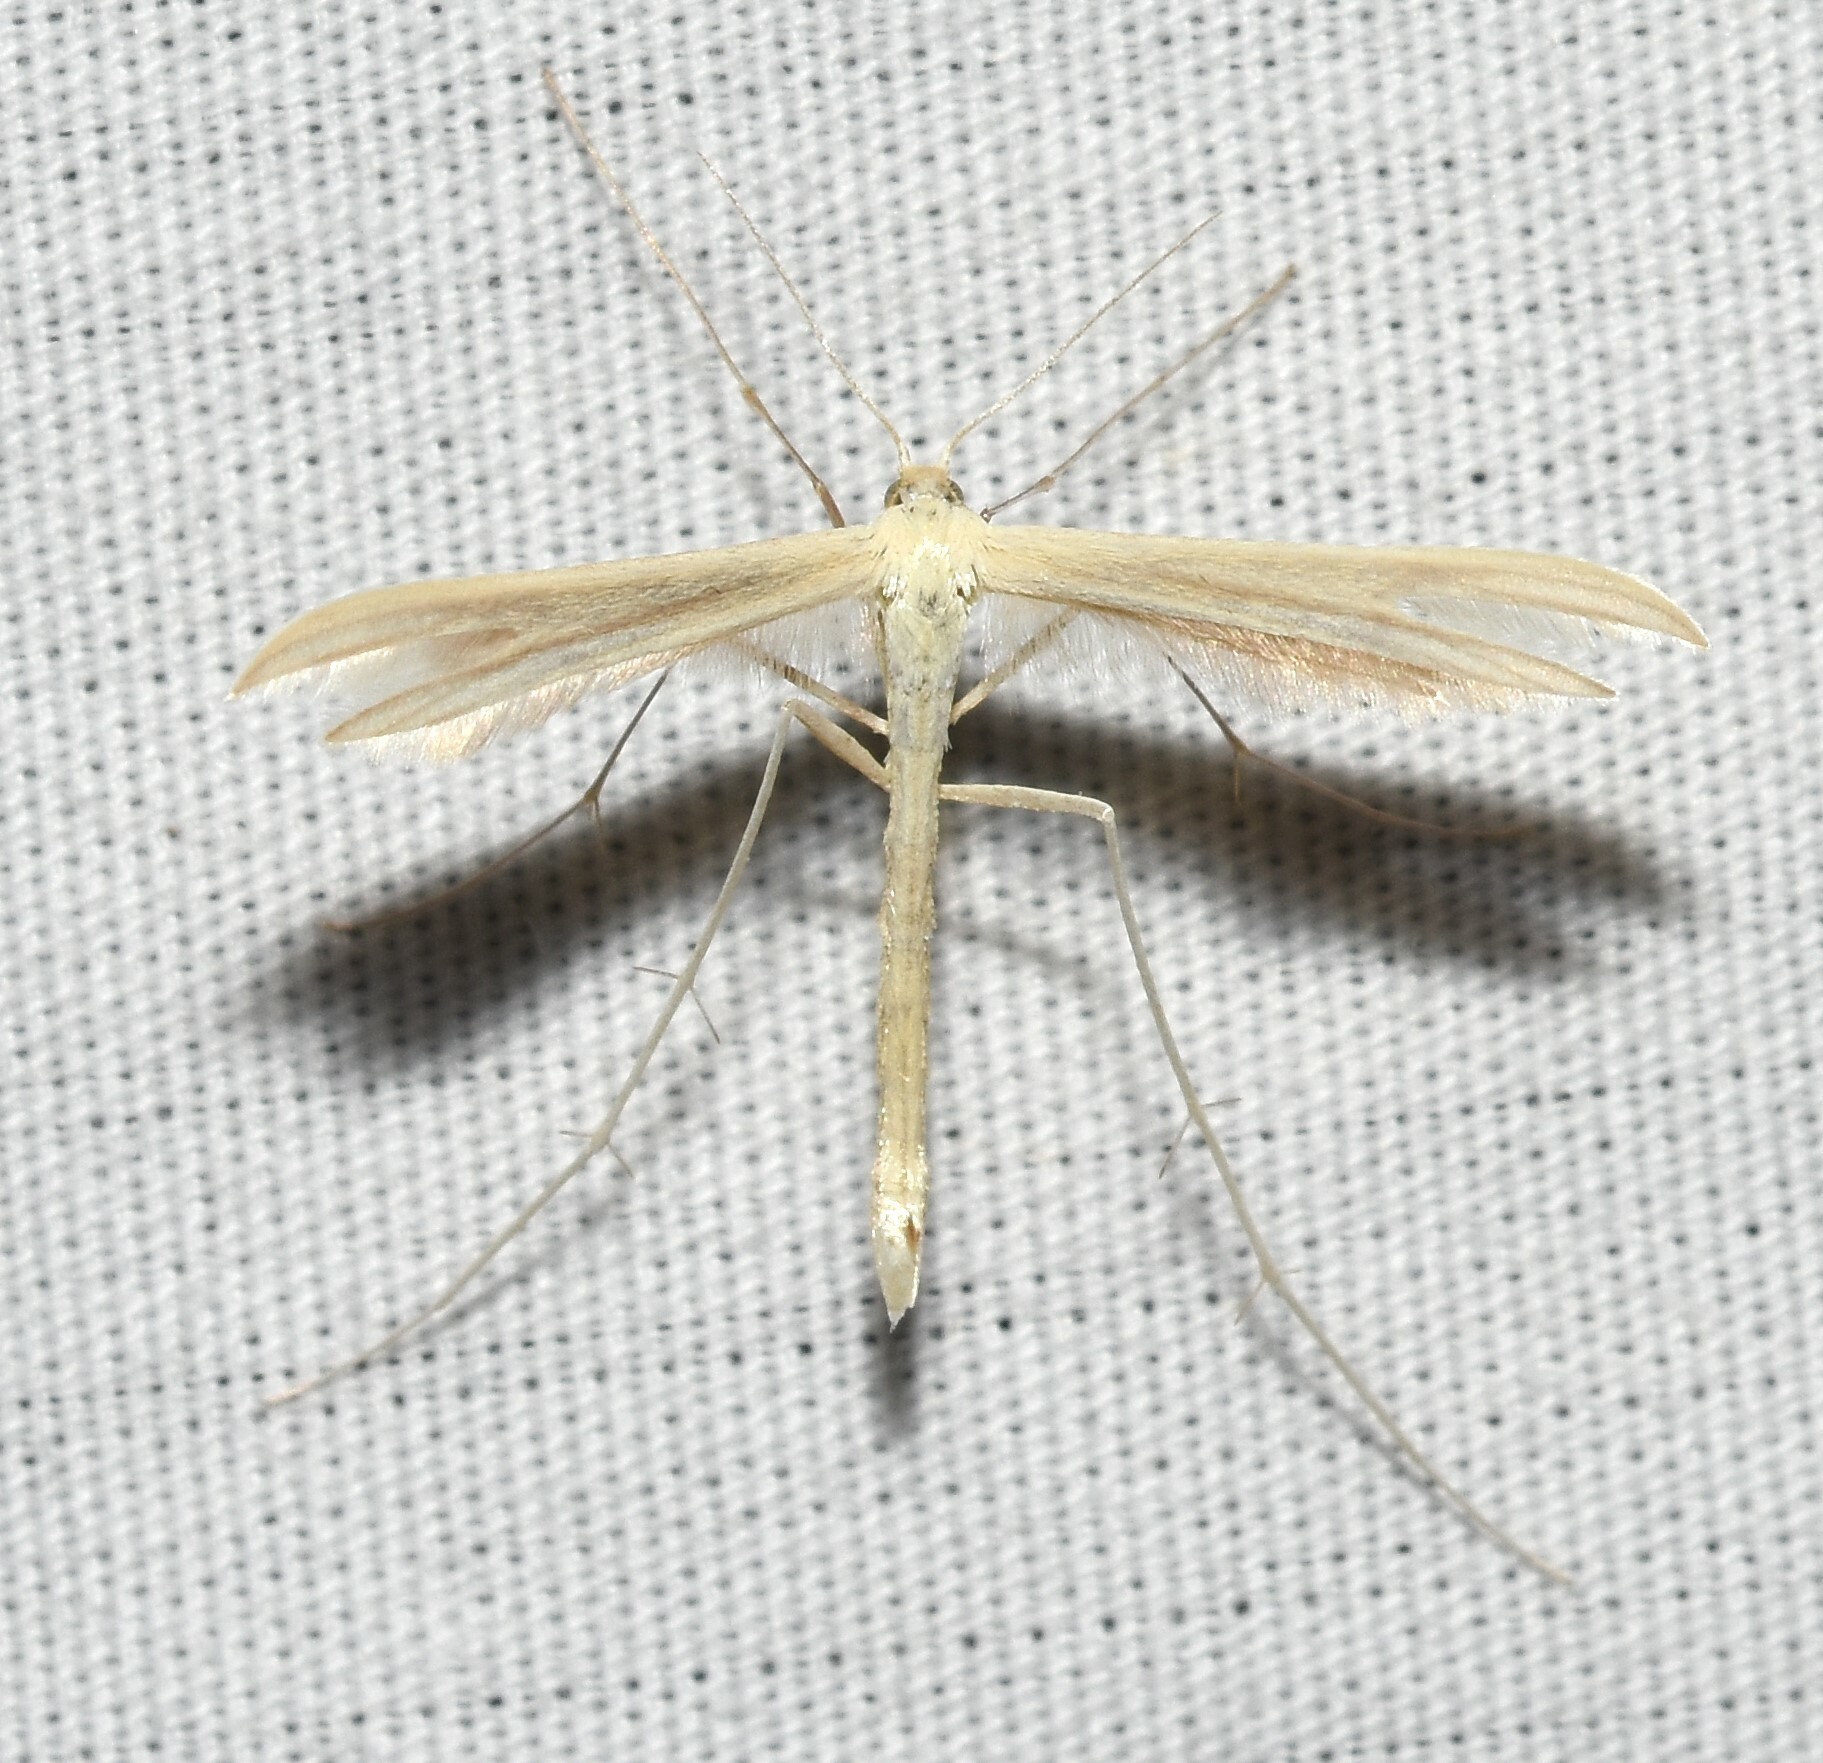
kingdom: Animalia
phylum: Arthropoda
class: Insecta
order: Lepidoptera
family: Pterophoridae
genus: Hellinsia
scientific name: Hellinsia unicolor
